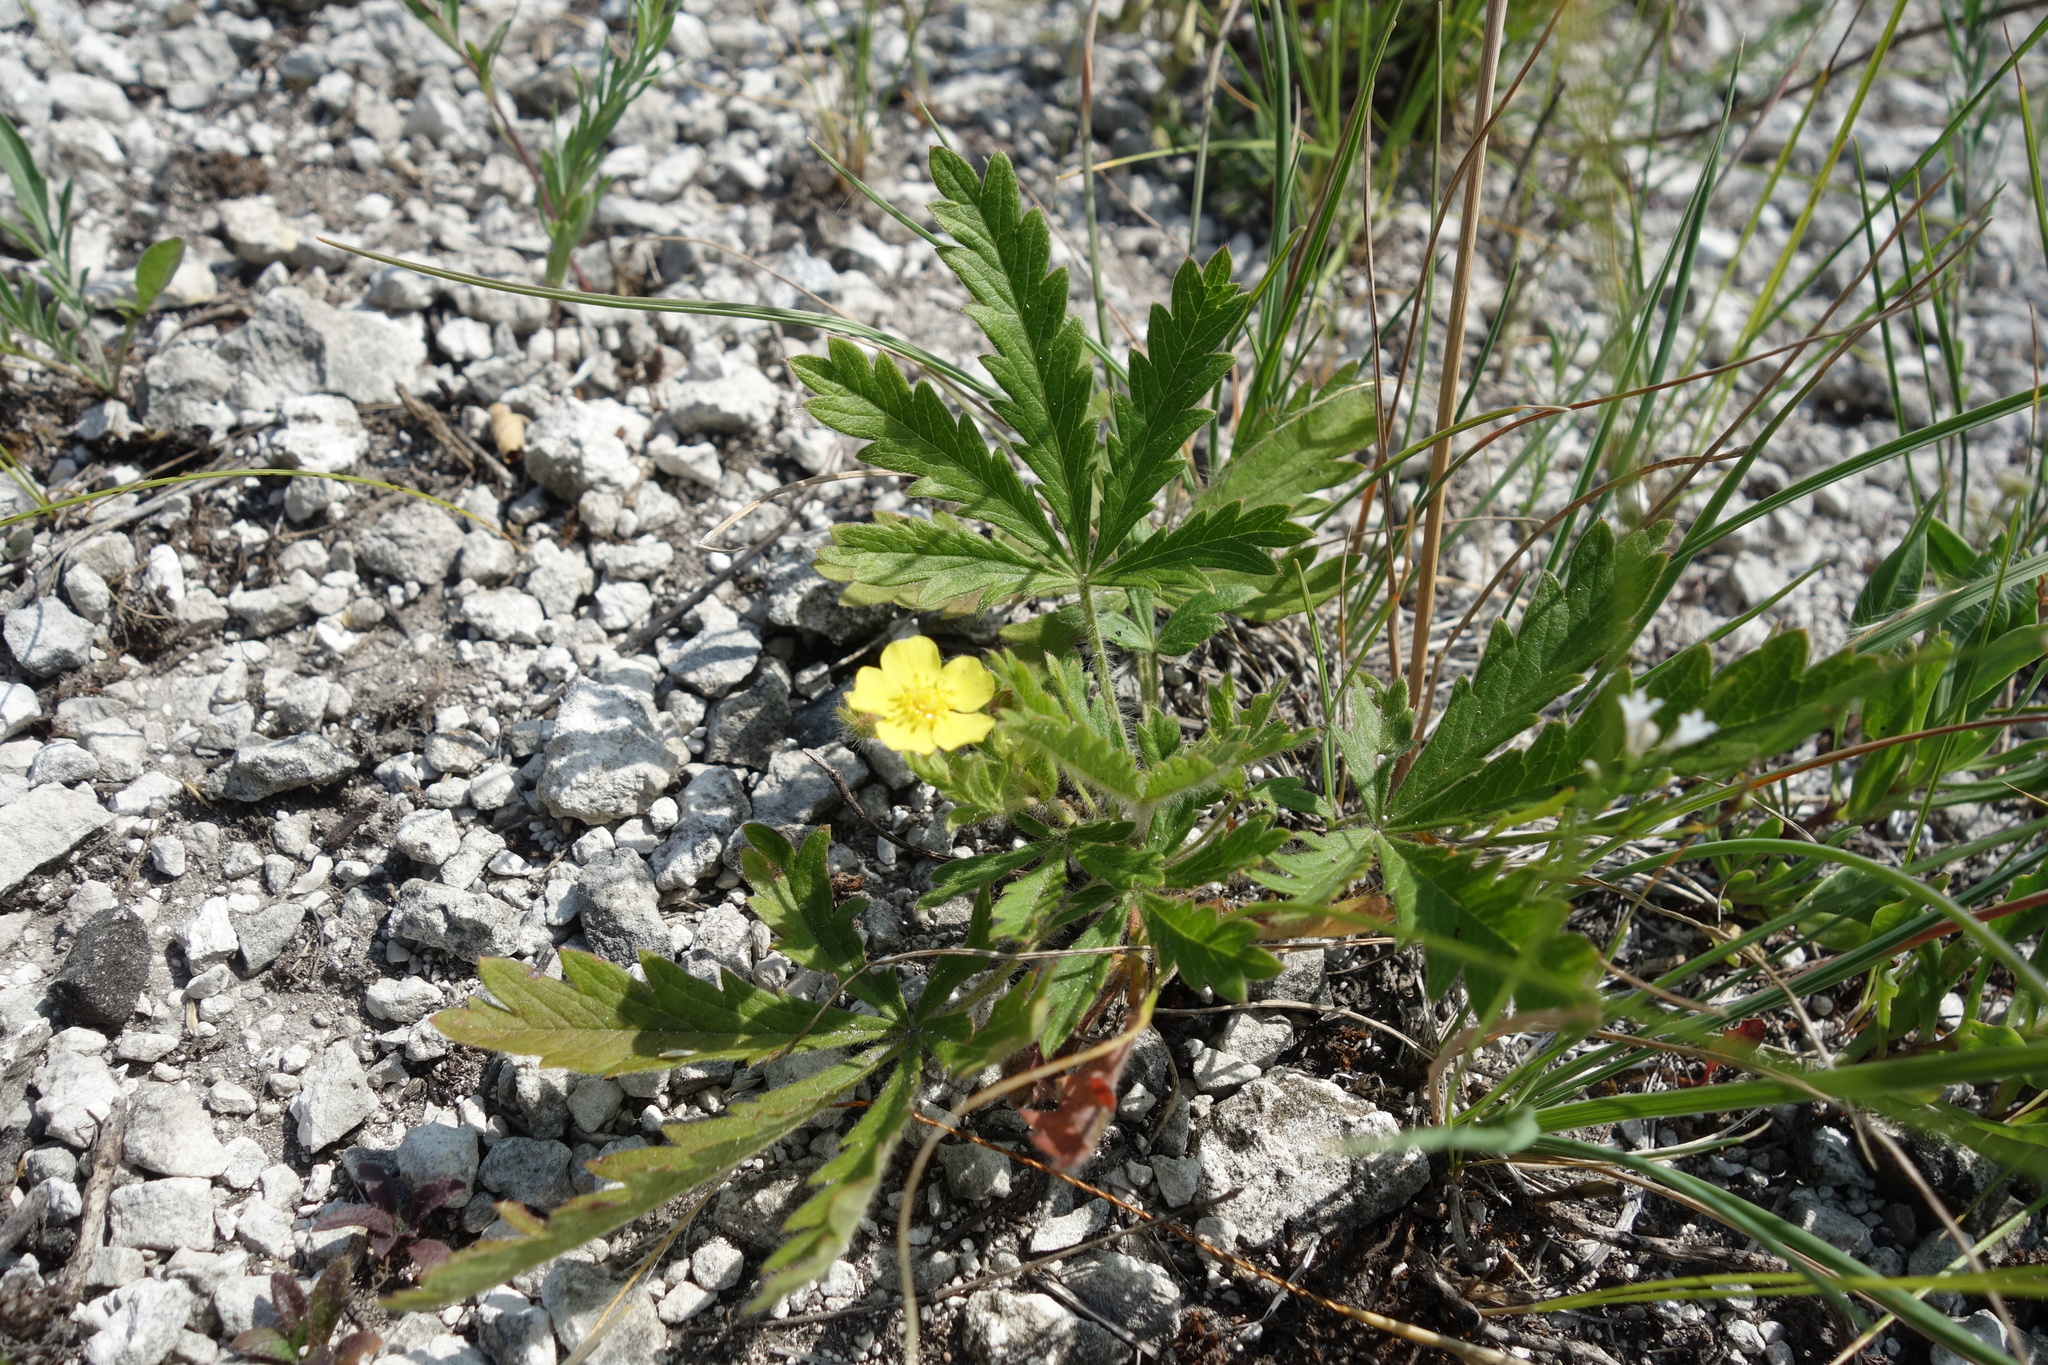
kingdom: Plantae
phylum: Tracheophyta
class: Magnoliopsida
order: Rosales
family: Rosaceae
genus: Potentilla
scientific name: Potentilla humifusa
